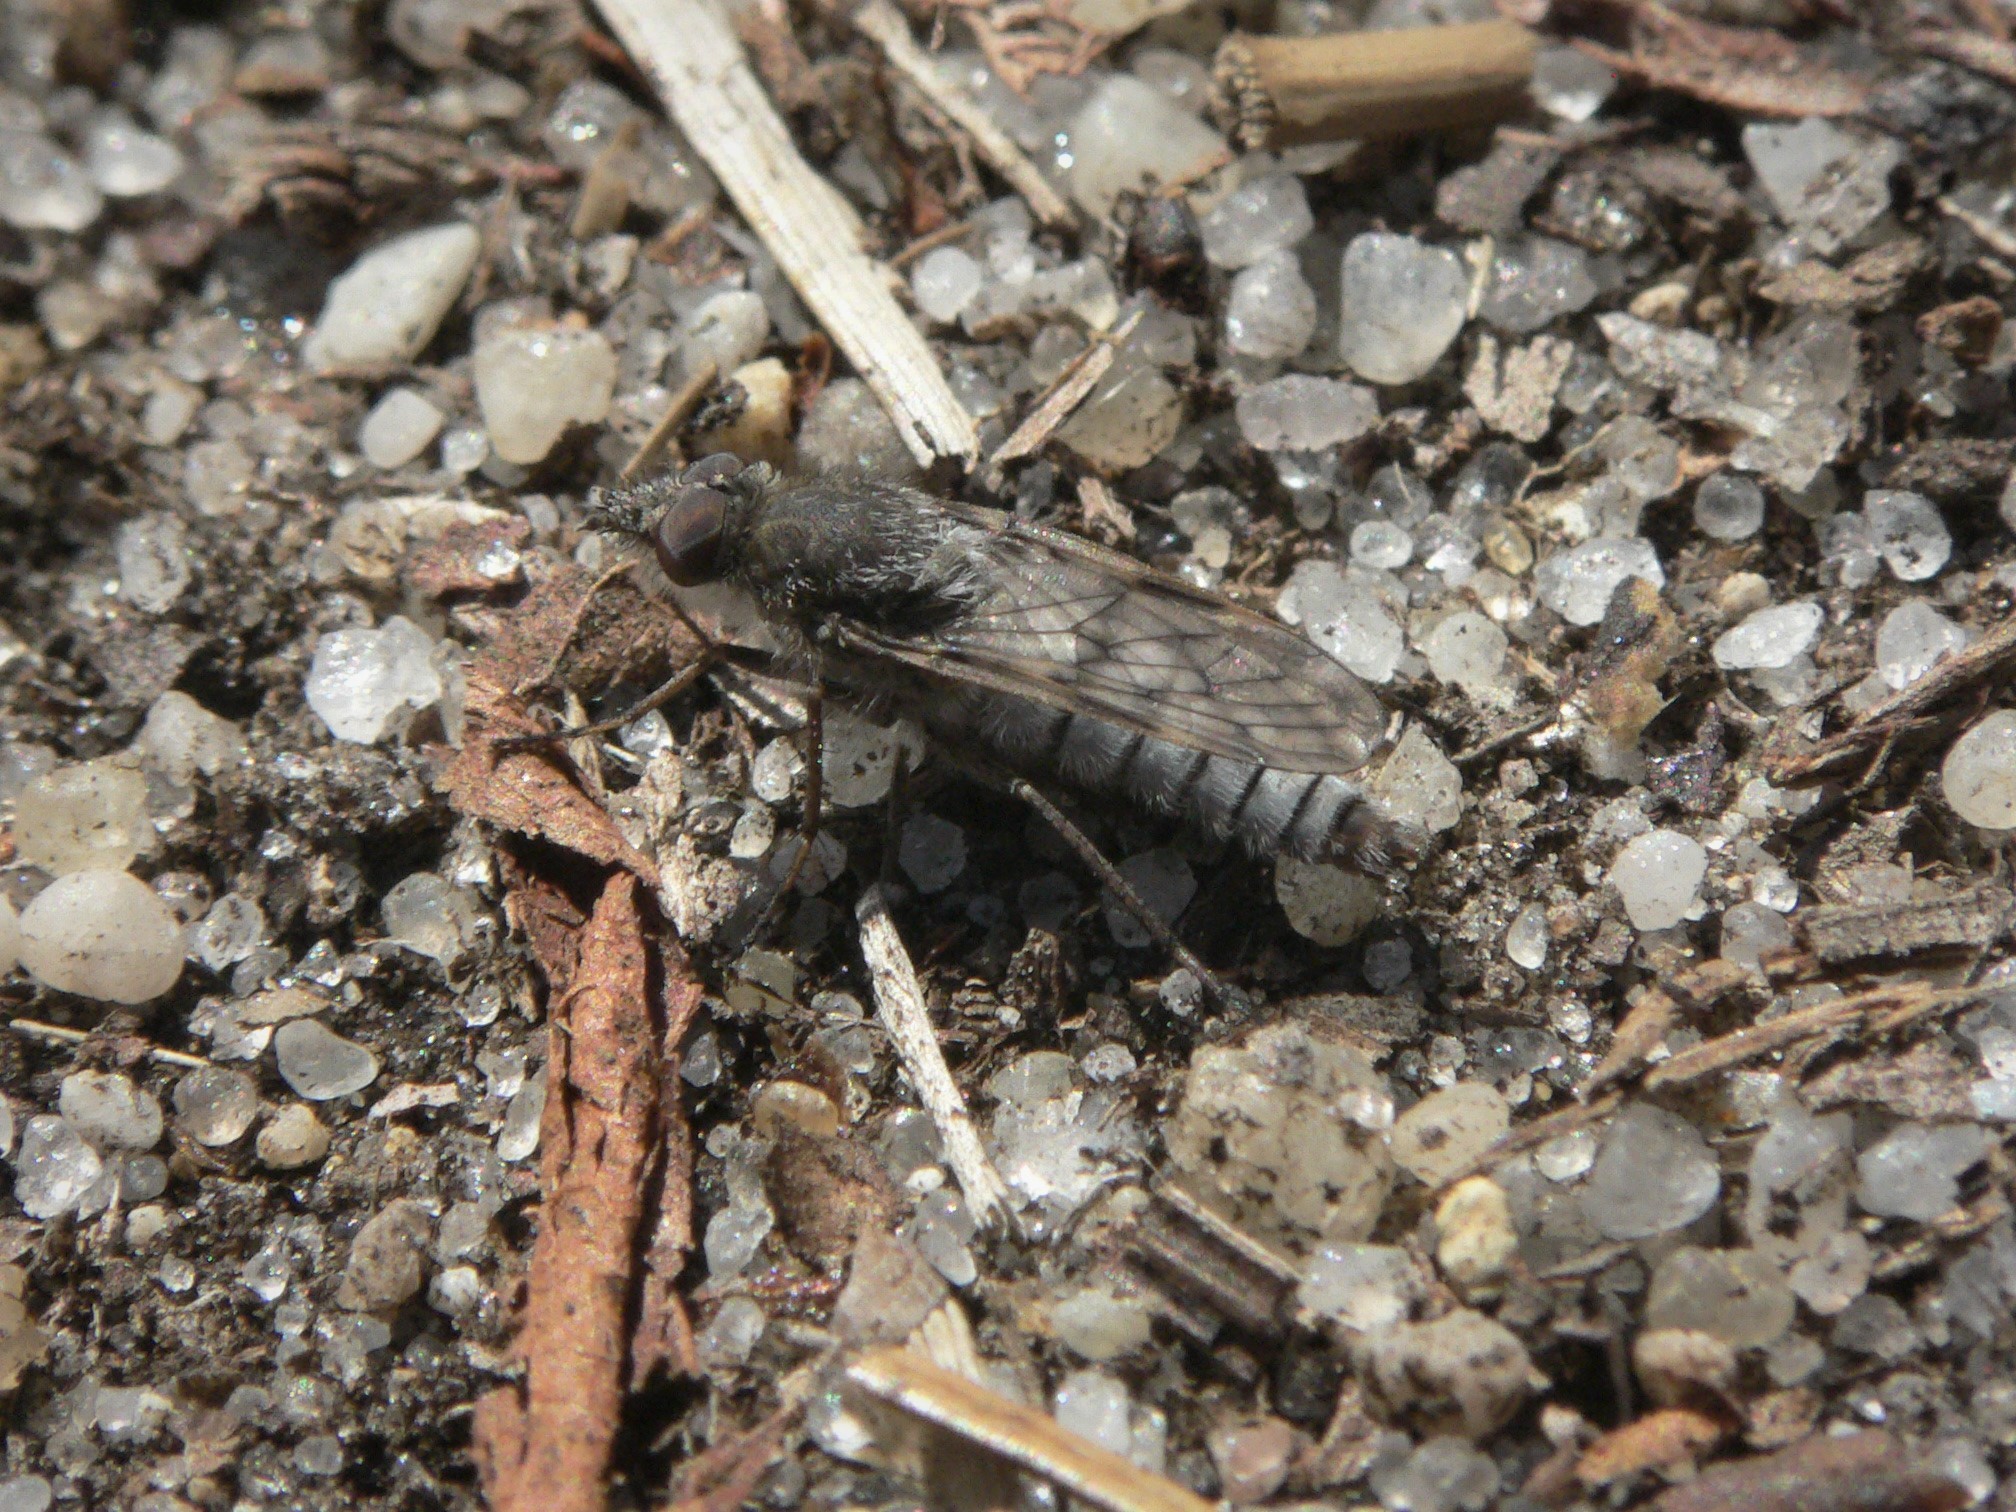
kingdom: Animalia
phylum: Arthropoda
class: Insecta
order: Diptera
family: Therevidae
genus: Tabuda
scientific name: Tabuda varia
